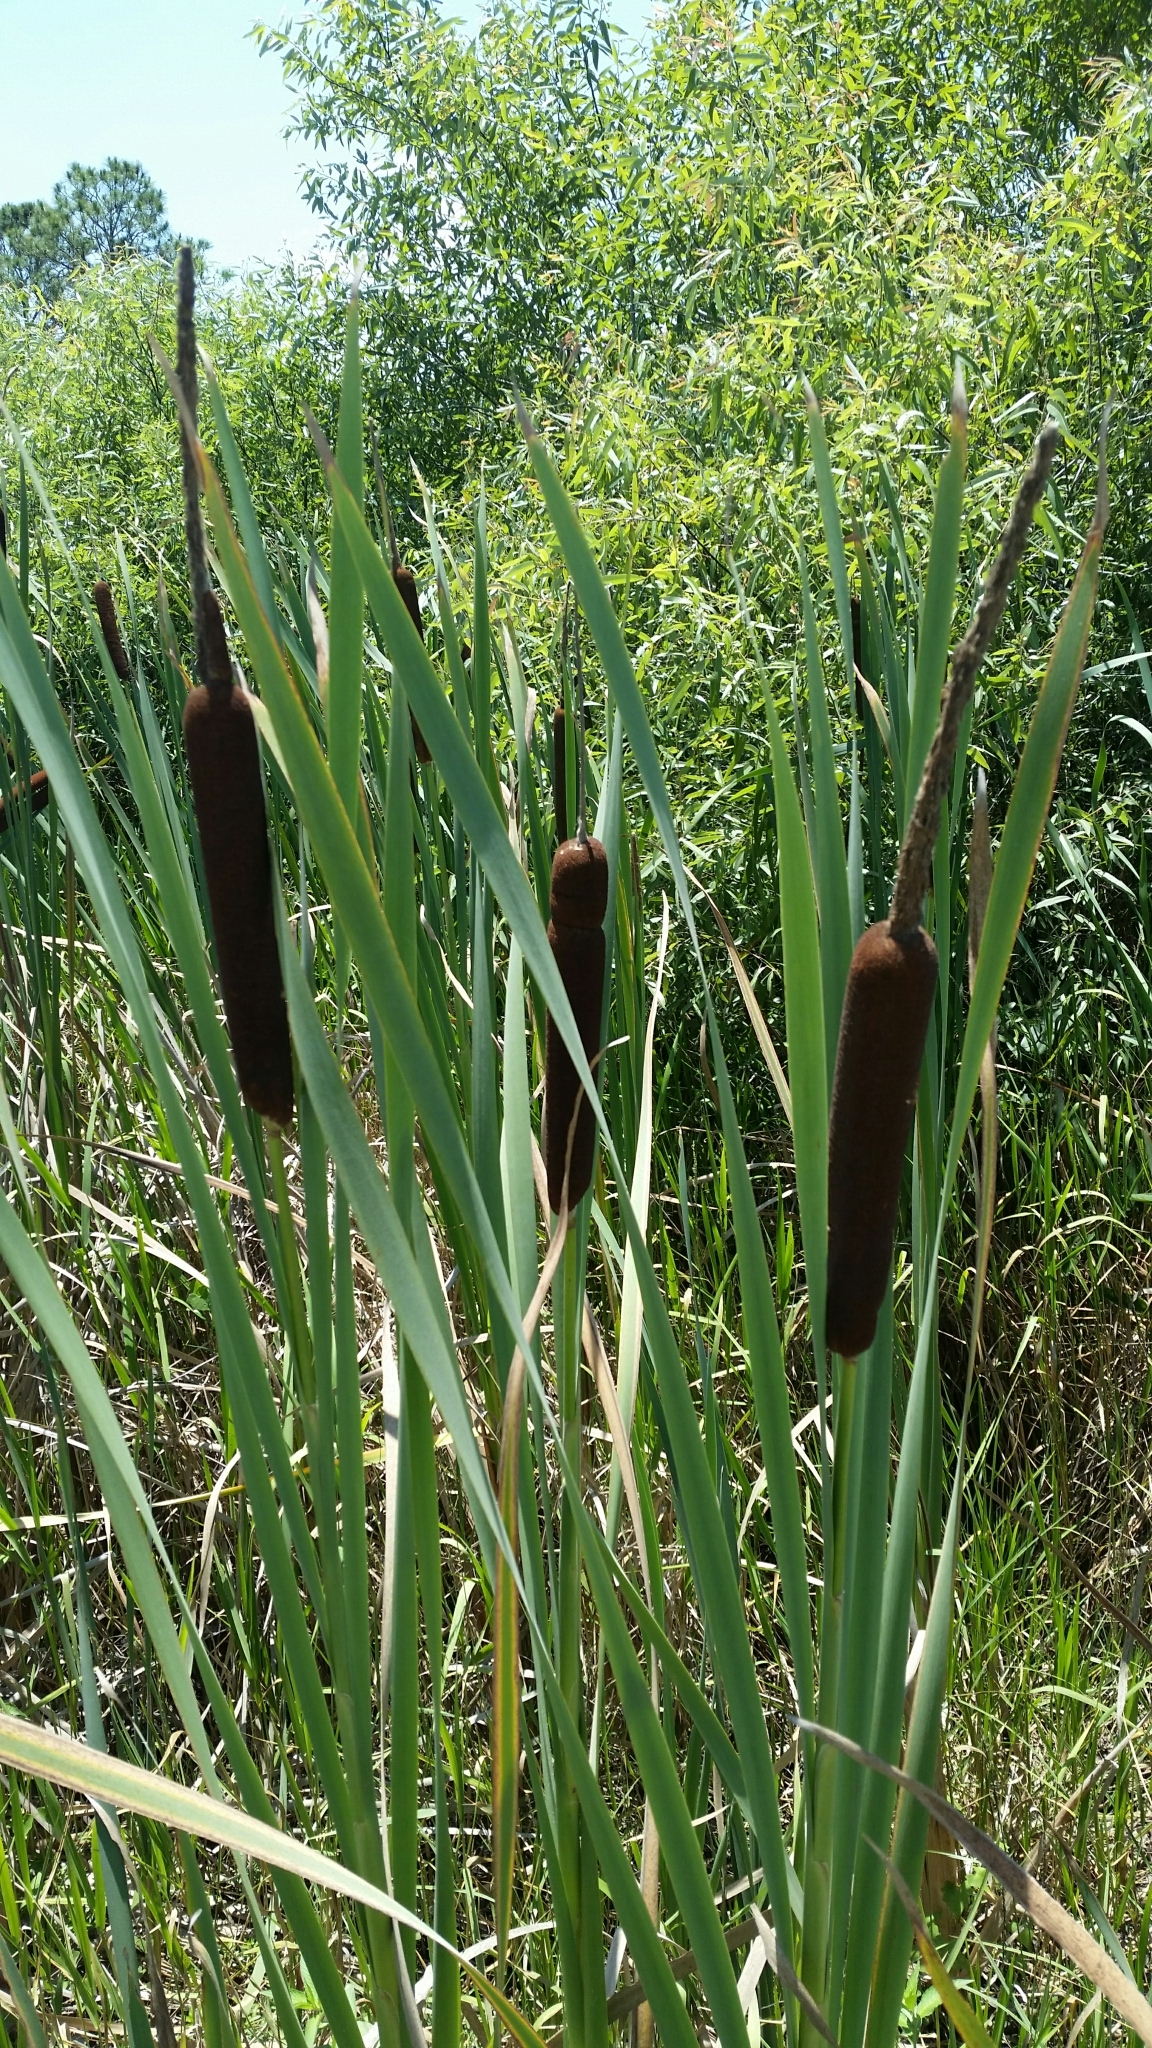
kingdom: Plantae
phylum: Tracheophyta
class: Liliopsida
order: Poales
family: Typhaceae
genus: Typha
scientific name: Typha latifolia
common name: Broadleaf cattail
